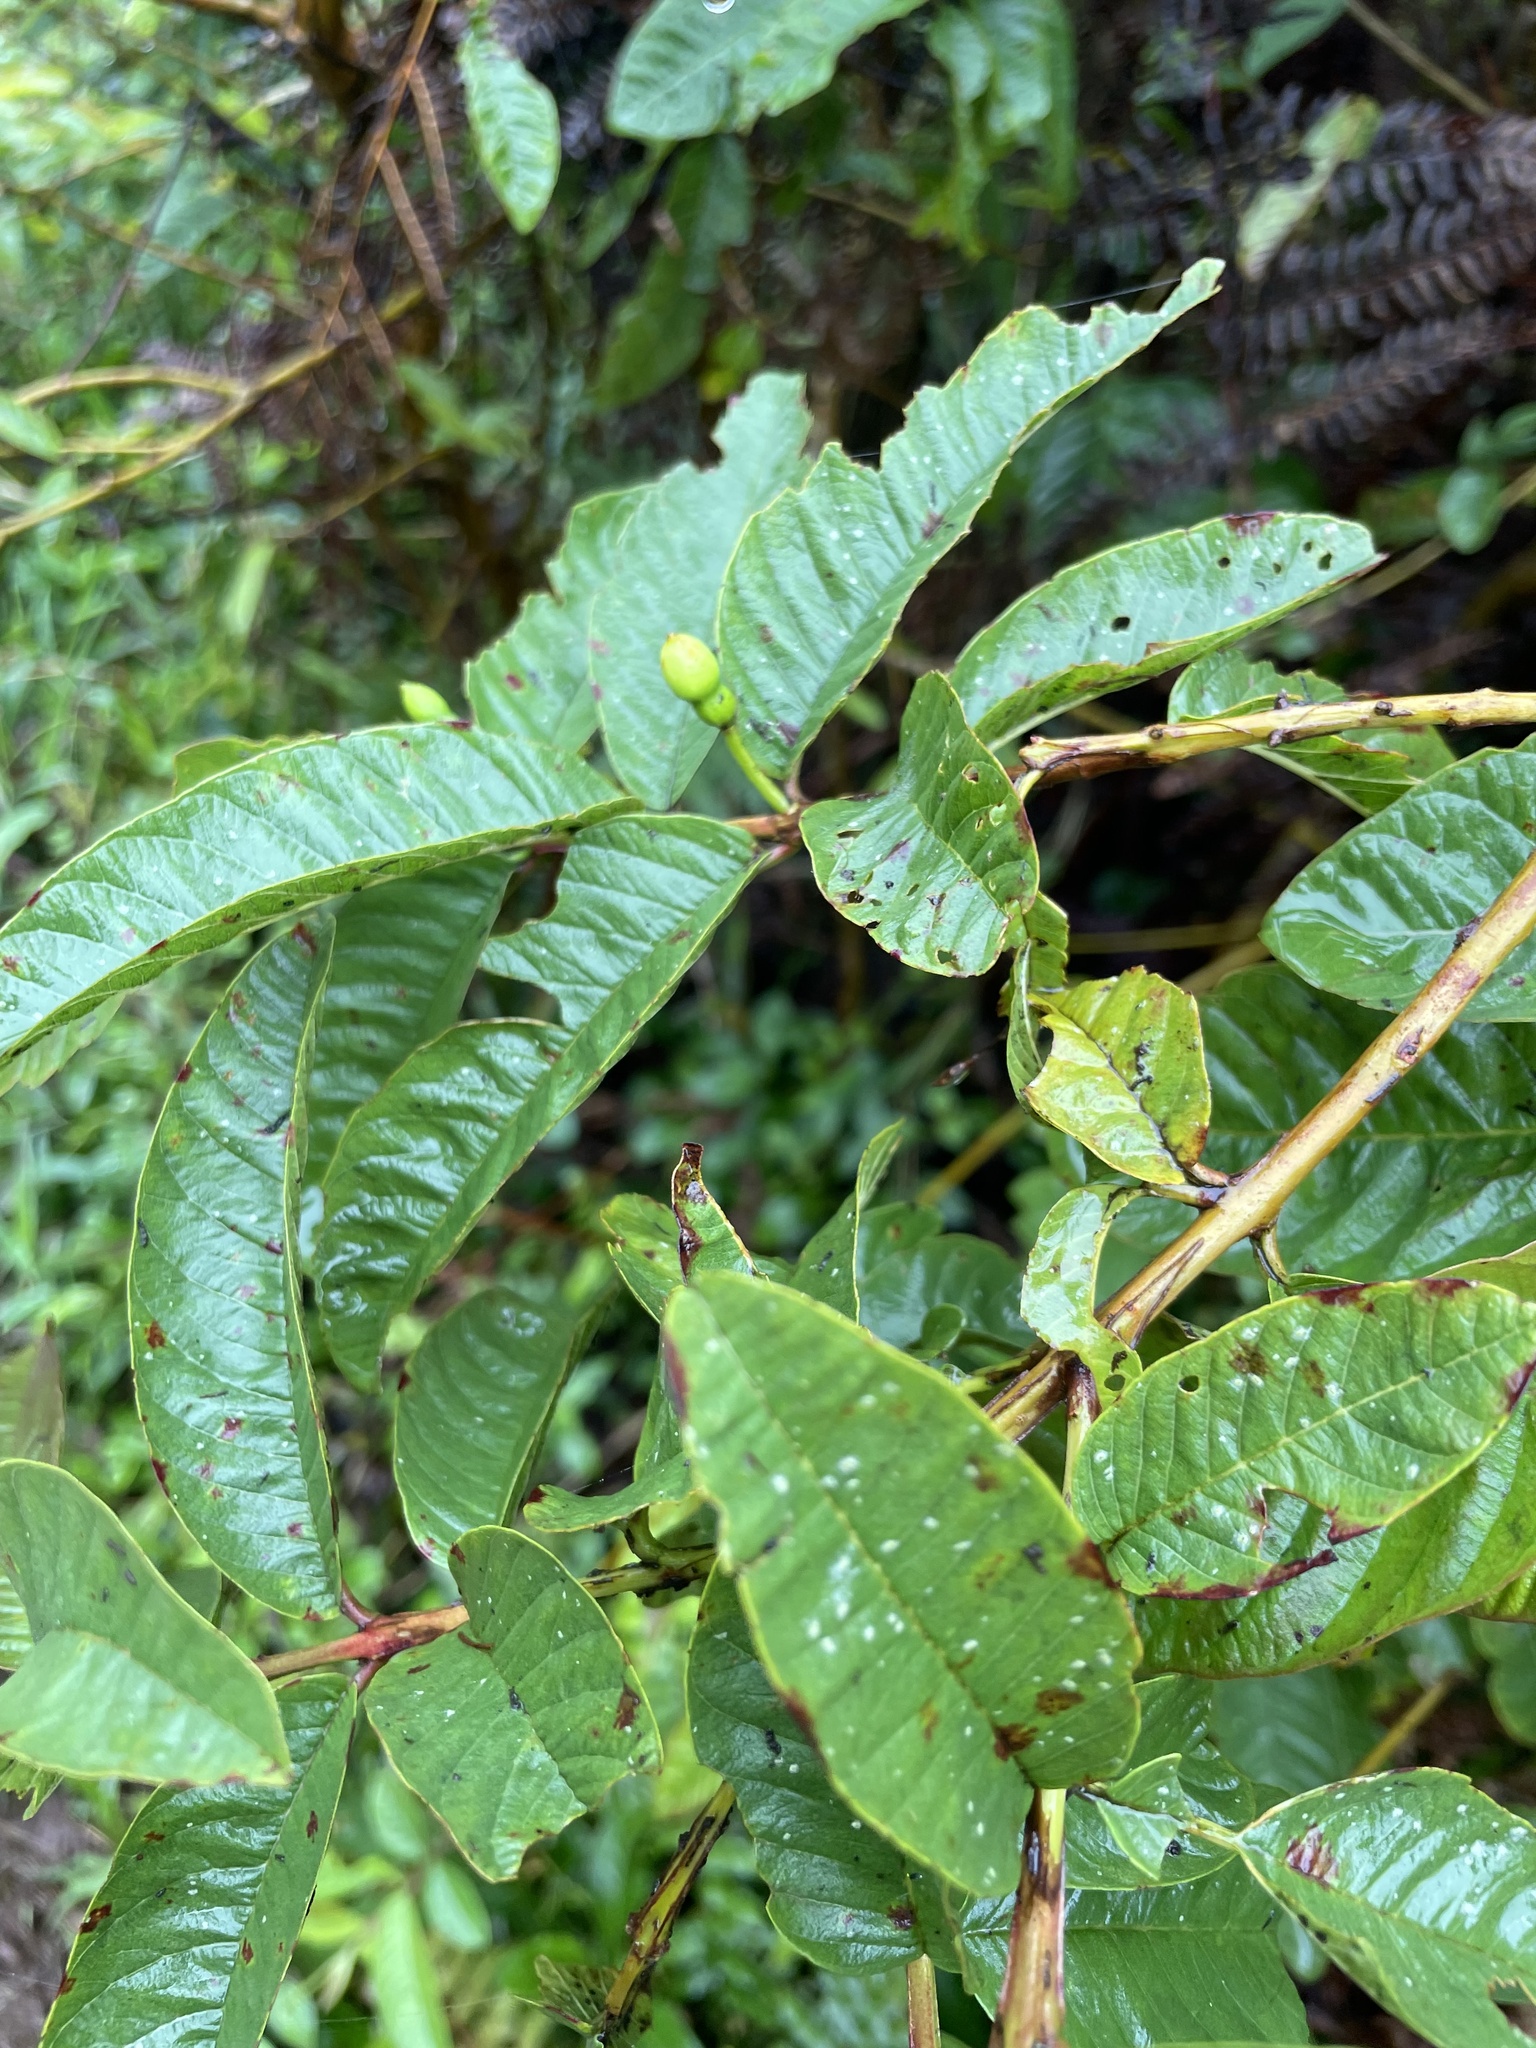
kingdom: Plantae
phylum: Tracheophyta
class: Magnoliopsida
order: Myrtales
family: Myrtaceae
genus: Psidium
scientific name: Psidium guajava
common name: Guava
